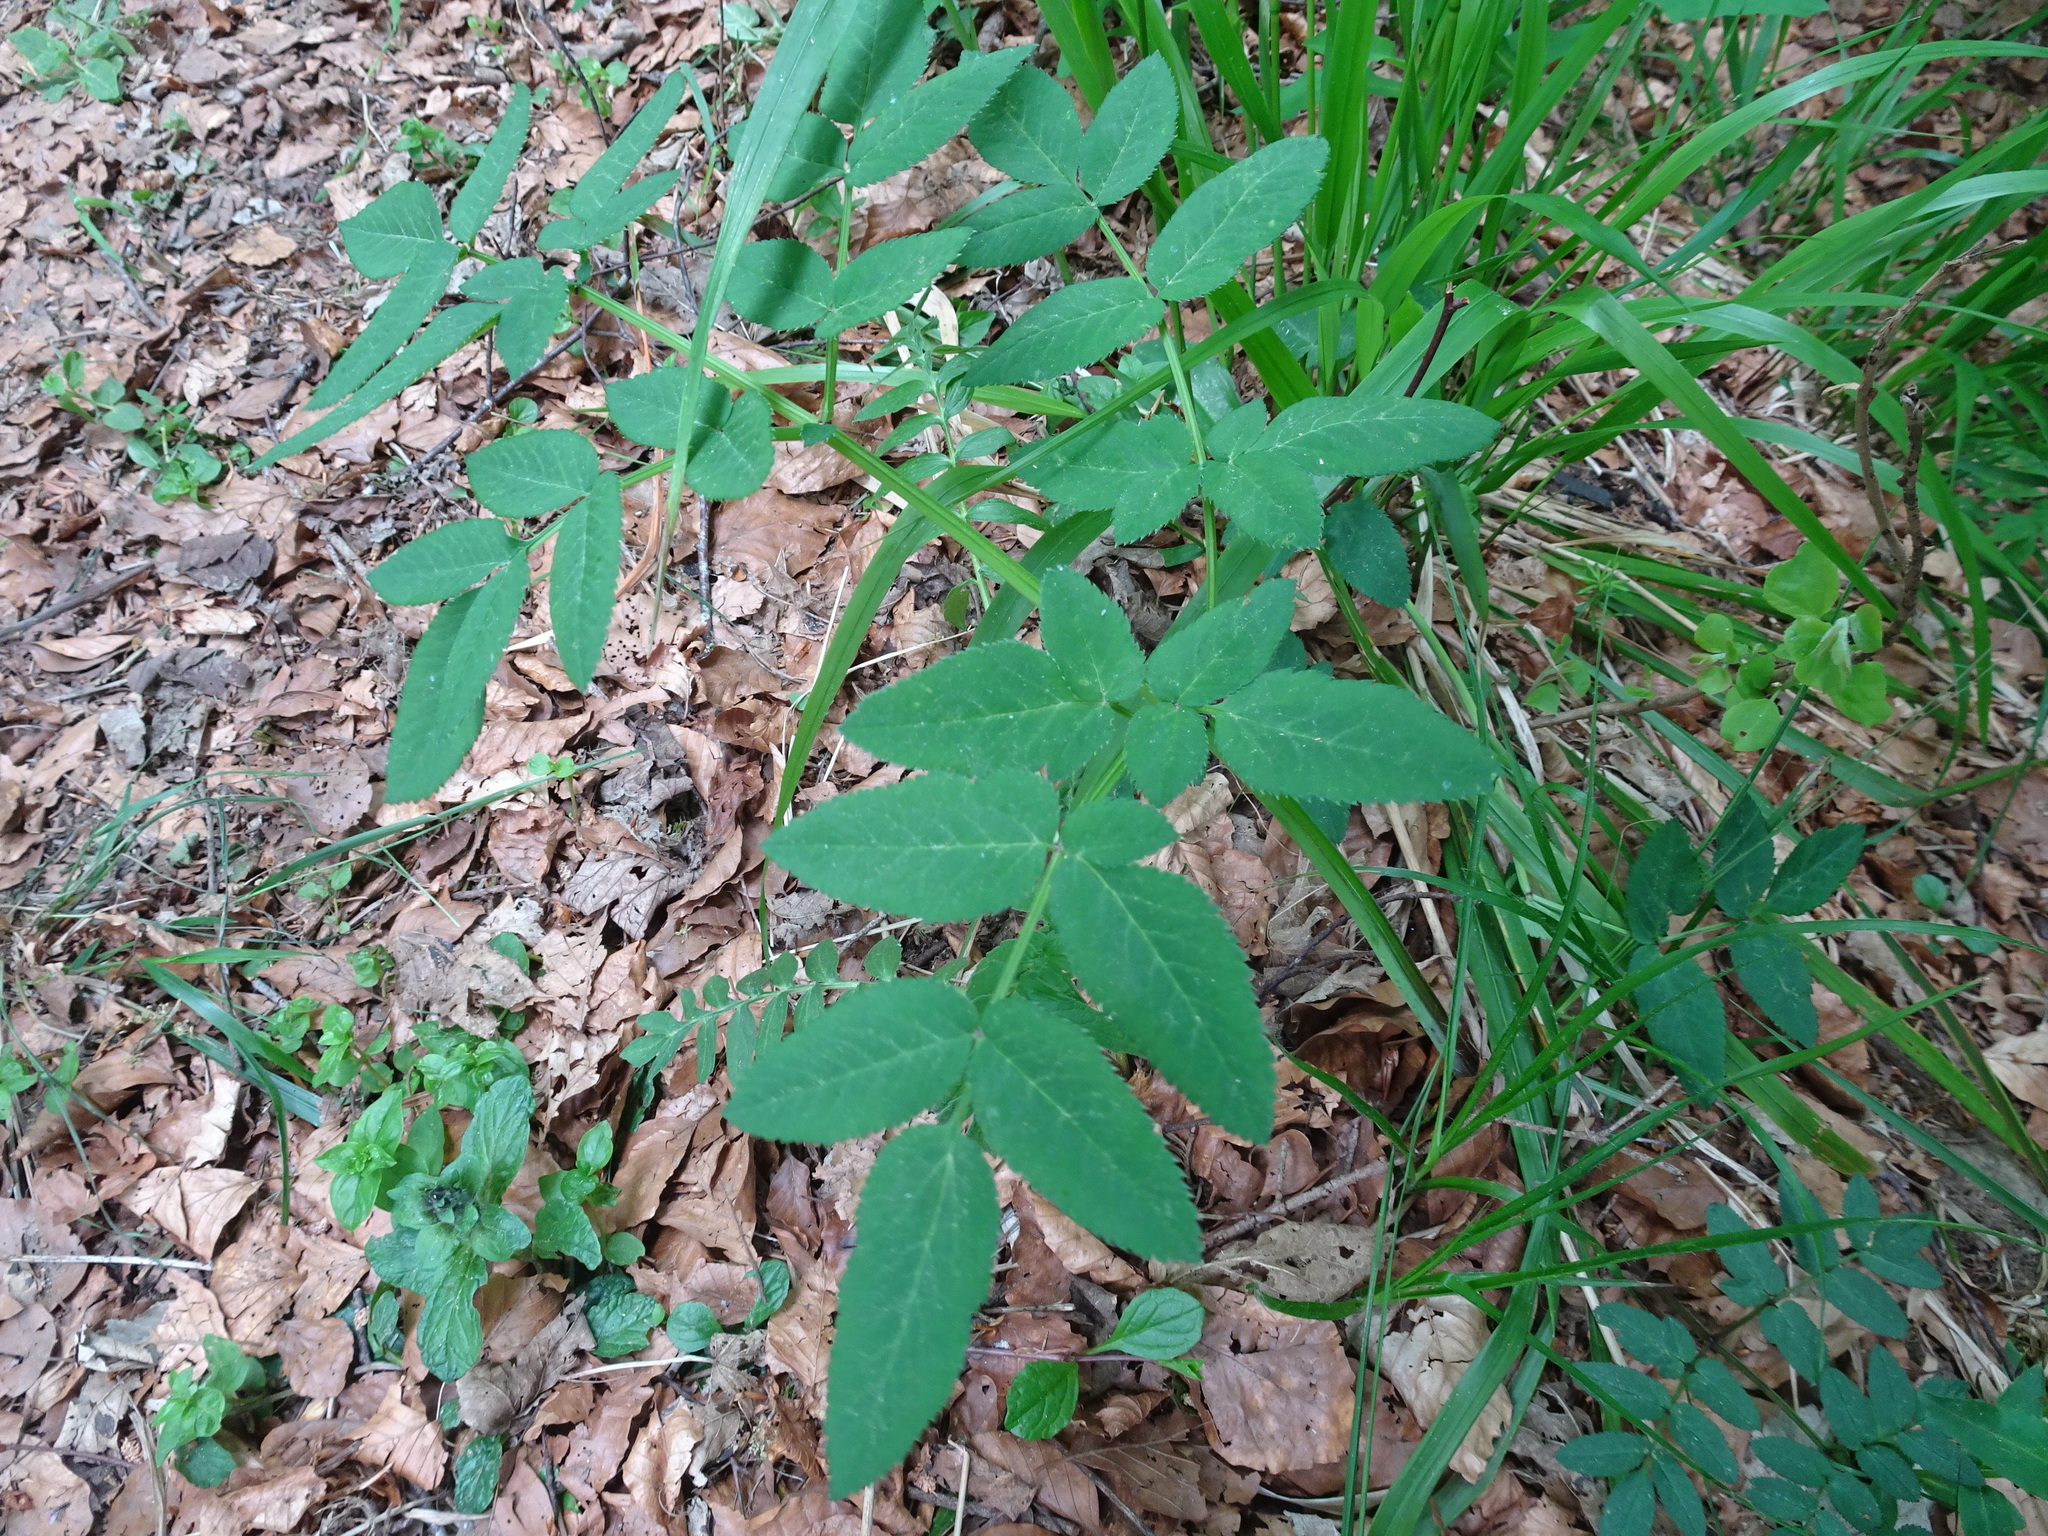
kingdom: Plantae
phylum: Tracheophyta
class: Magnoliopsida
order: Apiales
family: Apiaceae
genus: Angelica
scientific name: Angelica sylvestris
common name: Wild angelica
